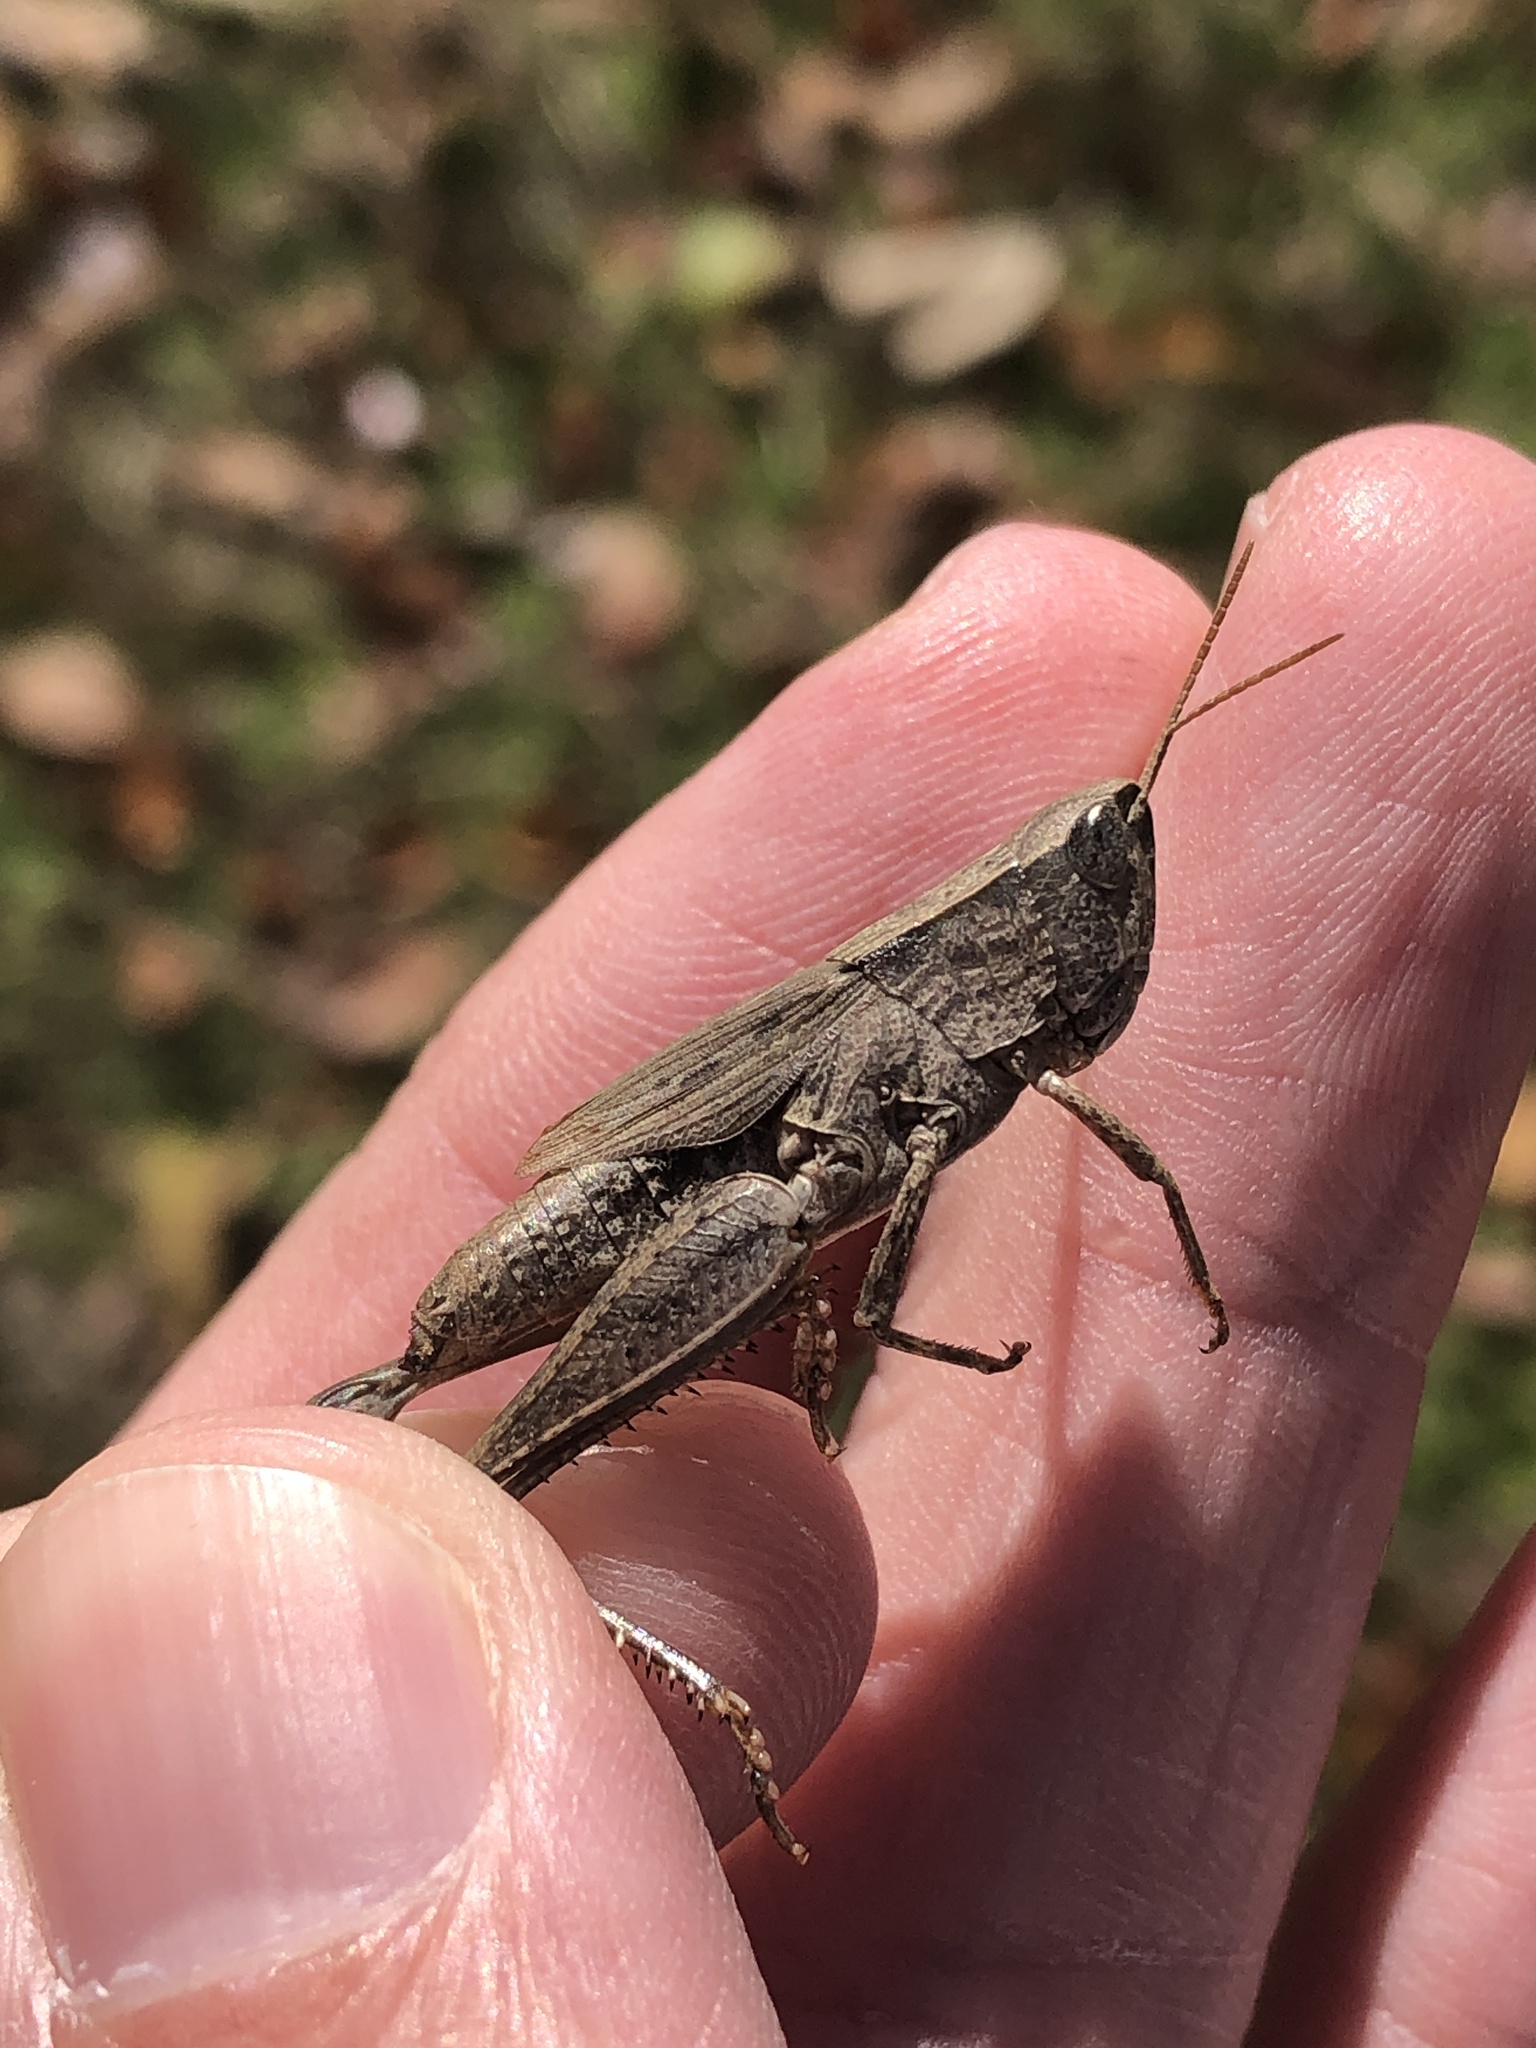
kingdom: Animalia
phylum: Arthropoda
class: Insecta
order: Orthoptera
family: Acrididae
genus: Dichromorpha
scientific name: Dichromorpha viridis
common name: Short-winged green grasshopper
